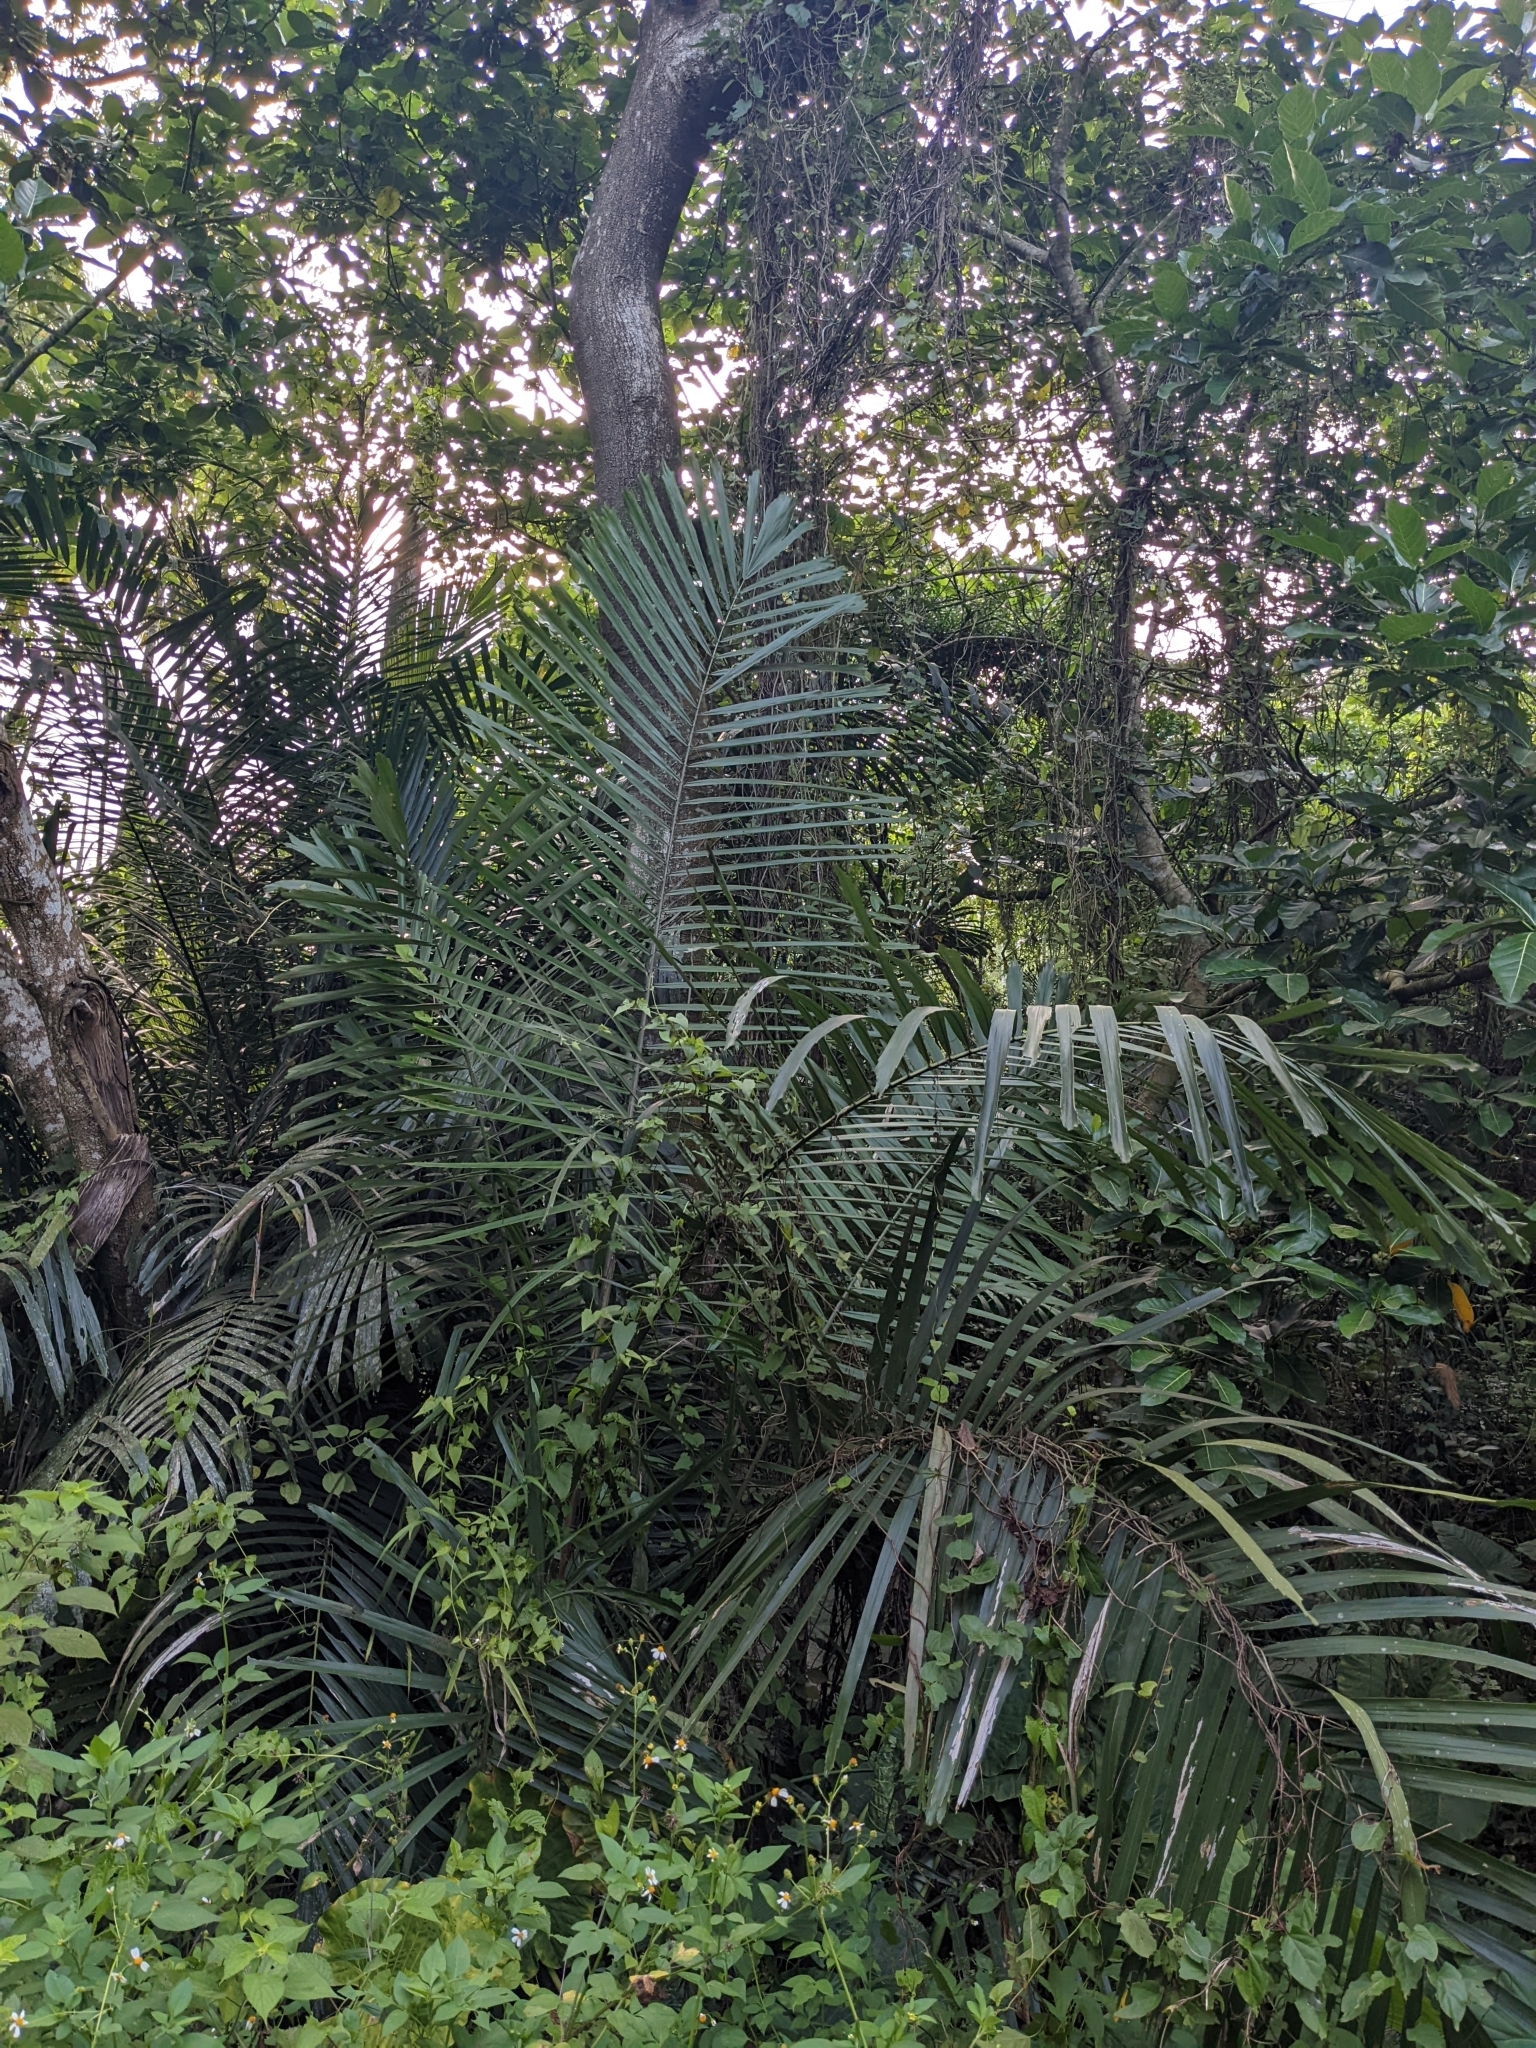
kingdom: Plantae
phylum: Tracheophyta
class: Liliopsida
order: Arecales
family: Arecaceae
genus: Arenga
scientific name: Arenga engleri
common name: Formosan sugar palm
